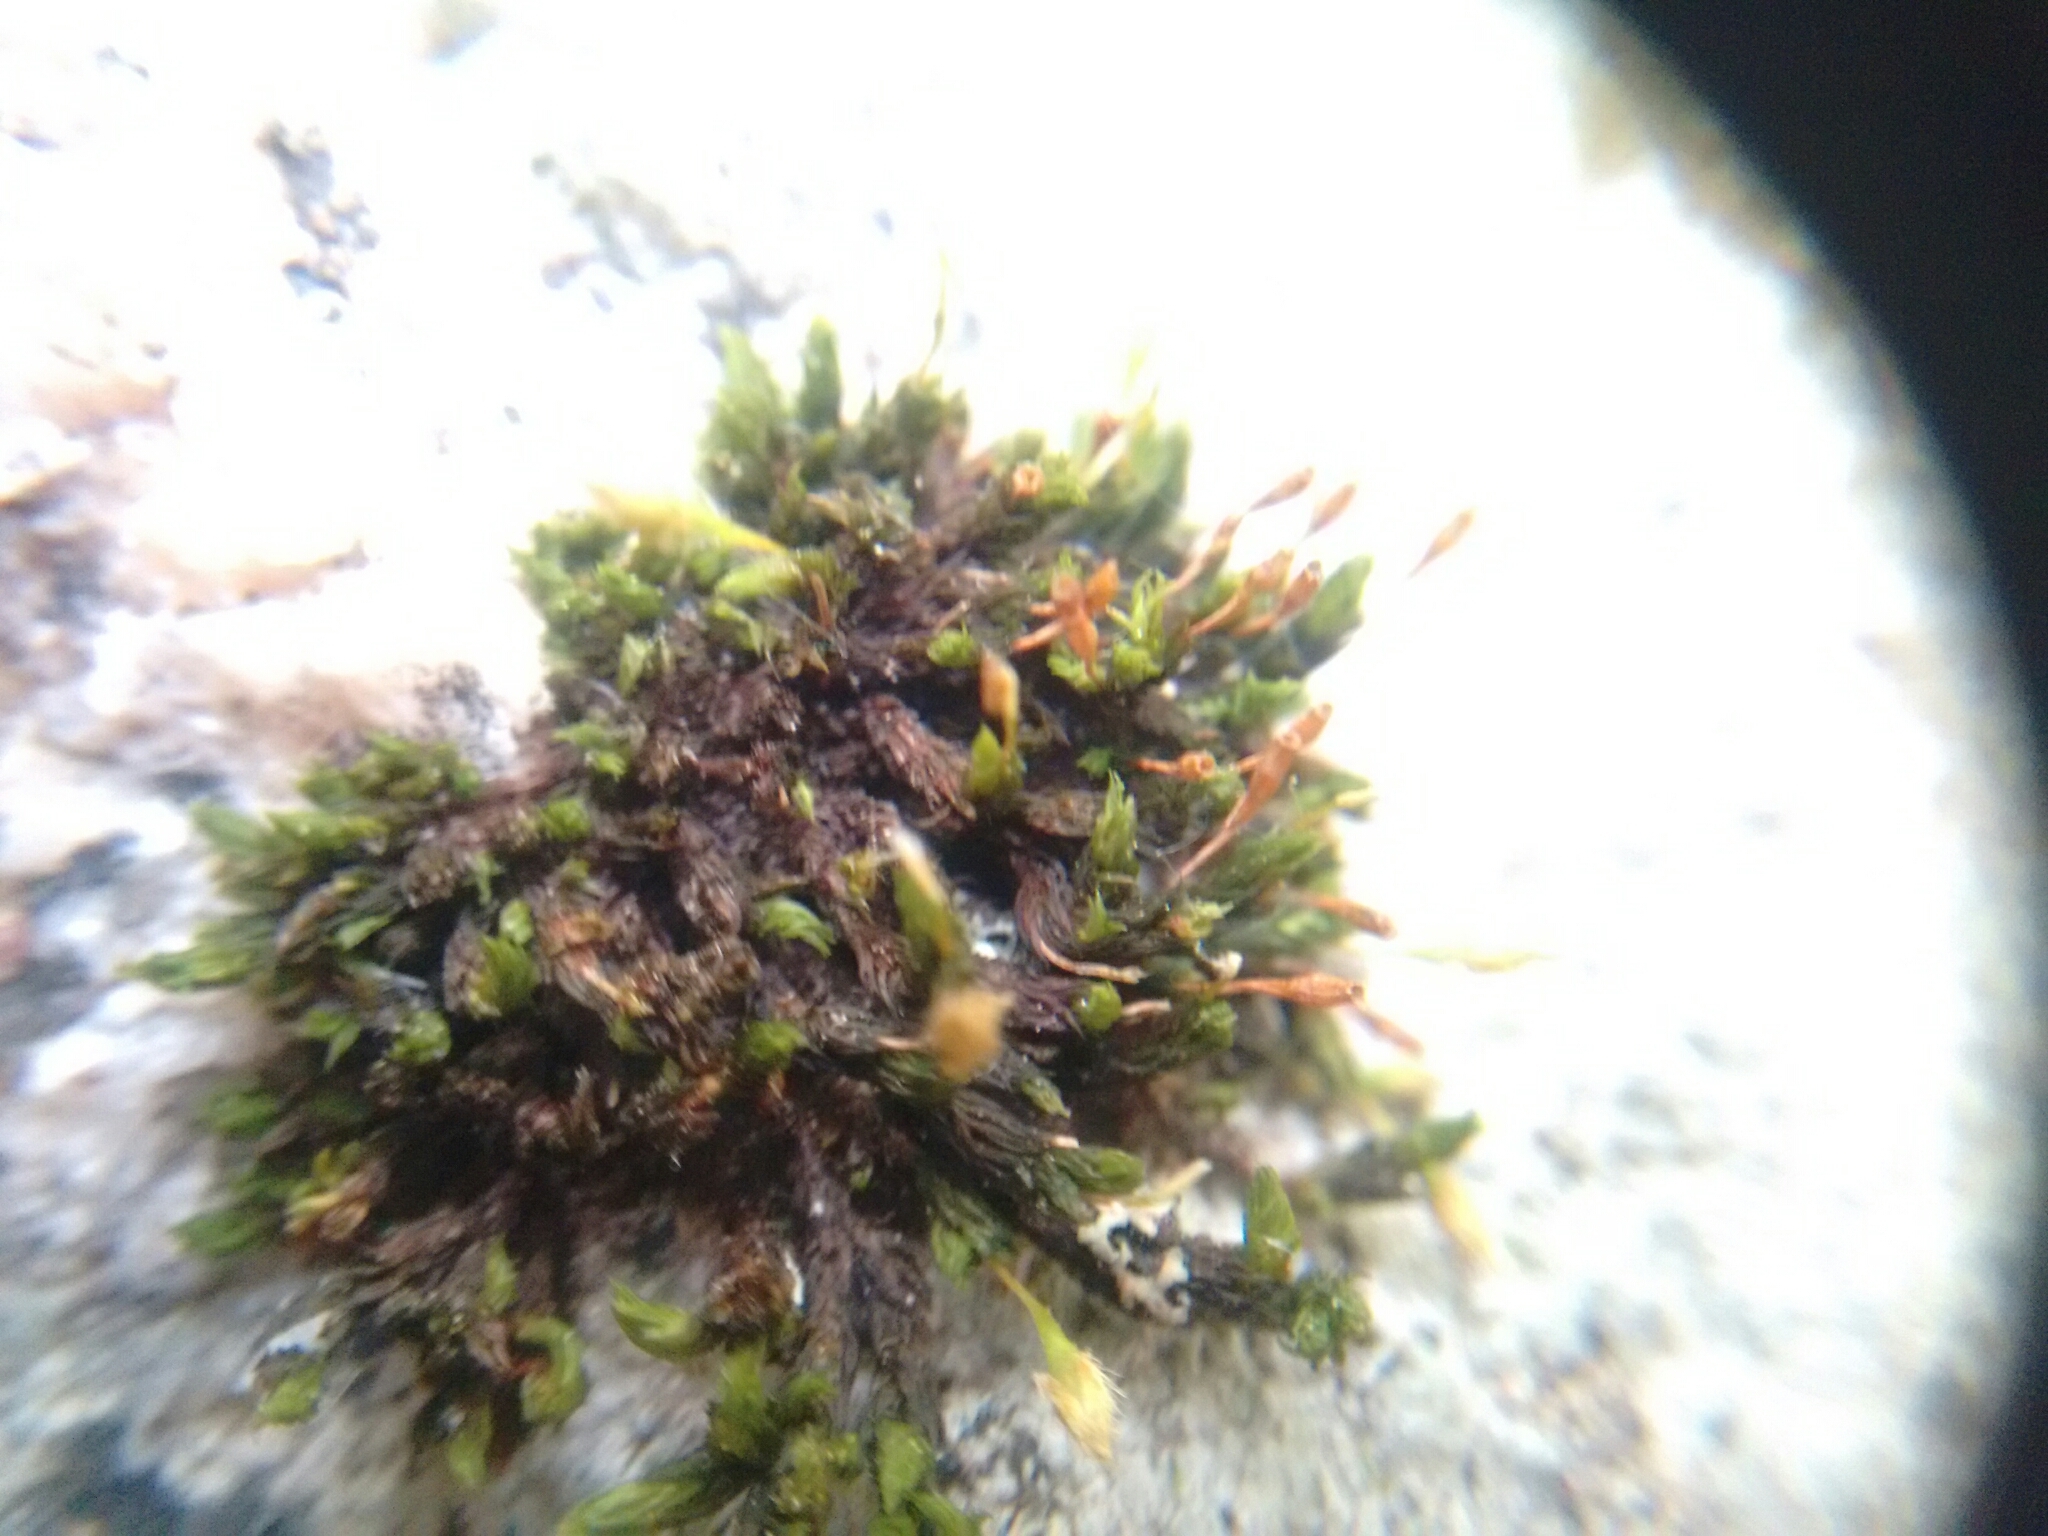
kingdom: Plantae
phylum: Bryophyta
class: Bryopsida
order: Orthotrichales
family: Orthotrichaceae
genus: Orthotrichum
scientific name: Orthotrichum anomalum
